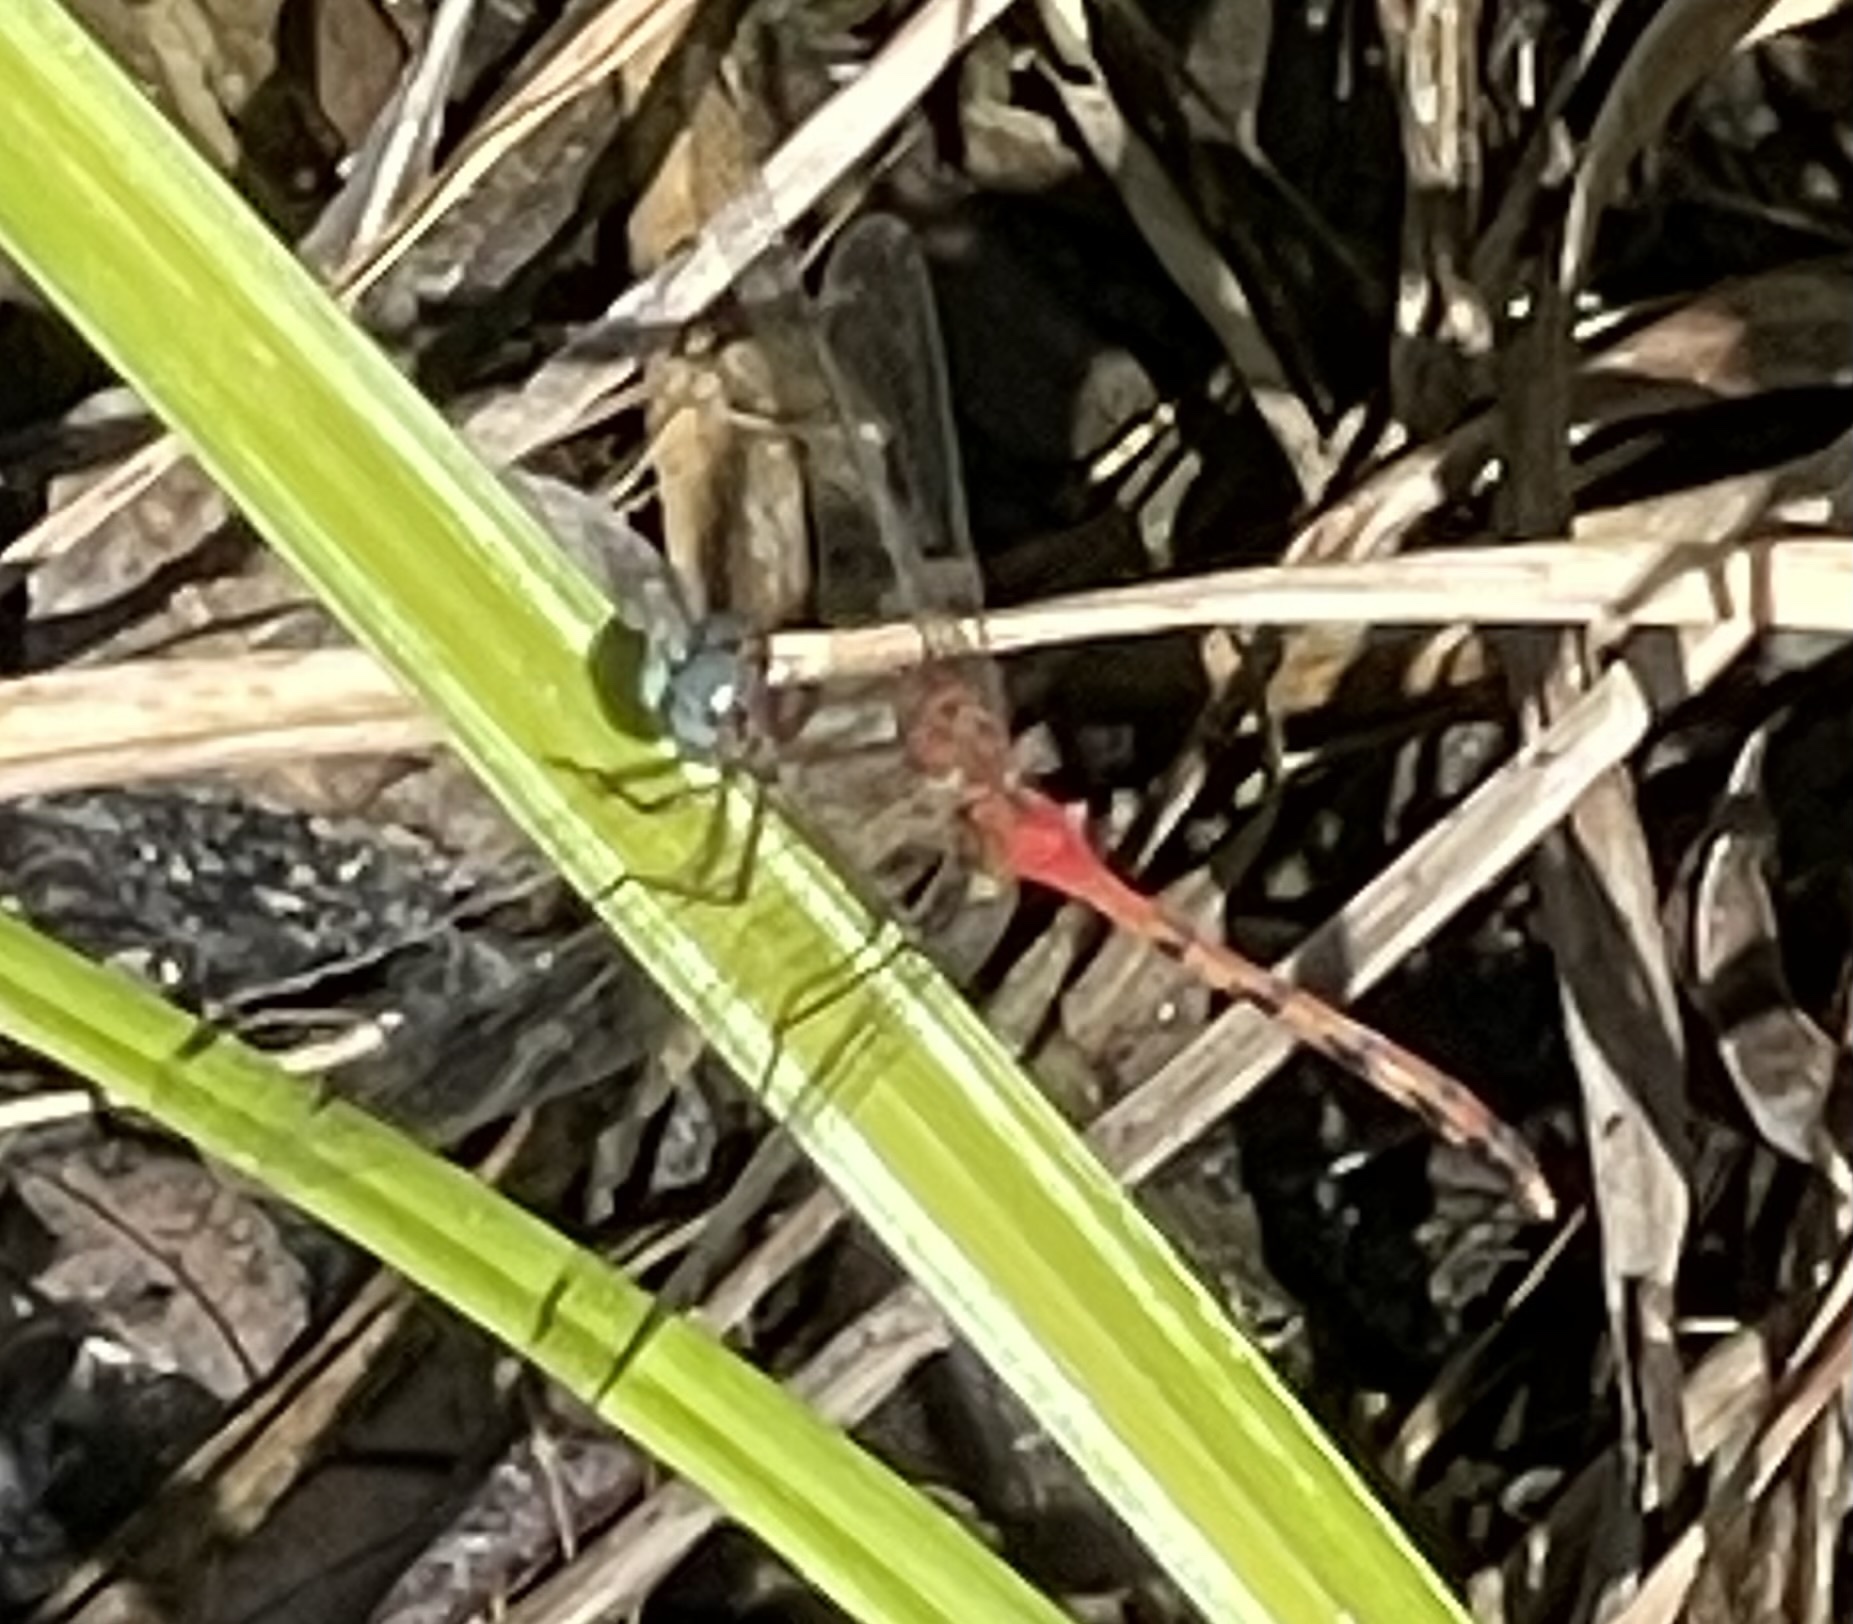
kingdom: Animalia
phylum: Arthropoda
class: Insecta
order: Odonata
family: Libellulidae
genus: Sympetrum
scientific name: Sympetrum ambiguum
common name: Blue-faced meadowhawk
